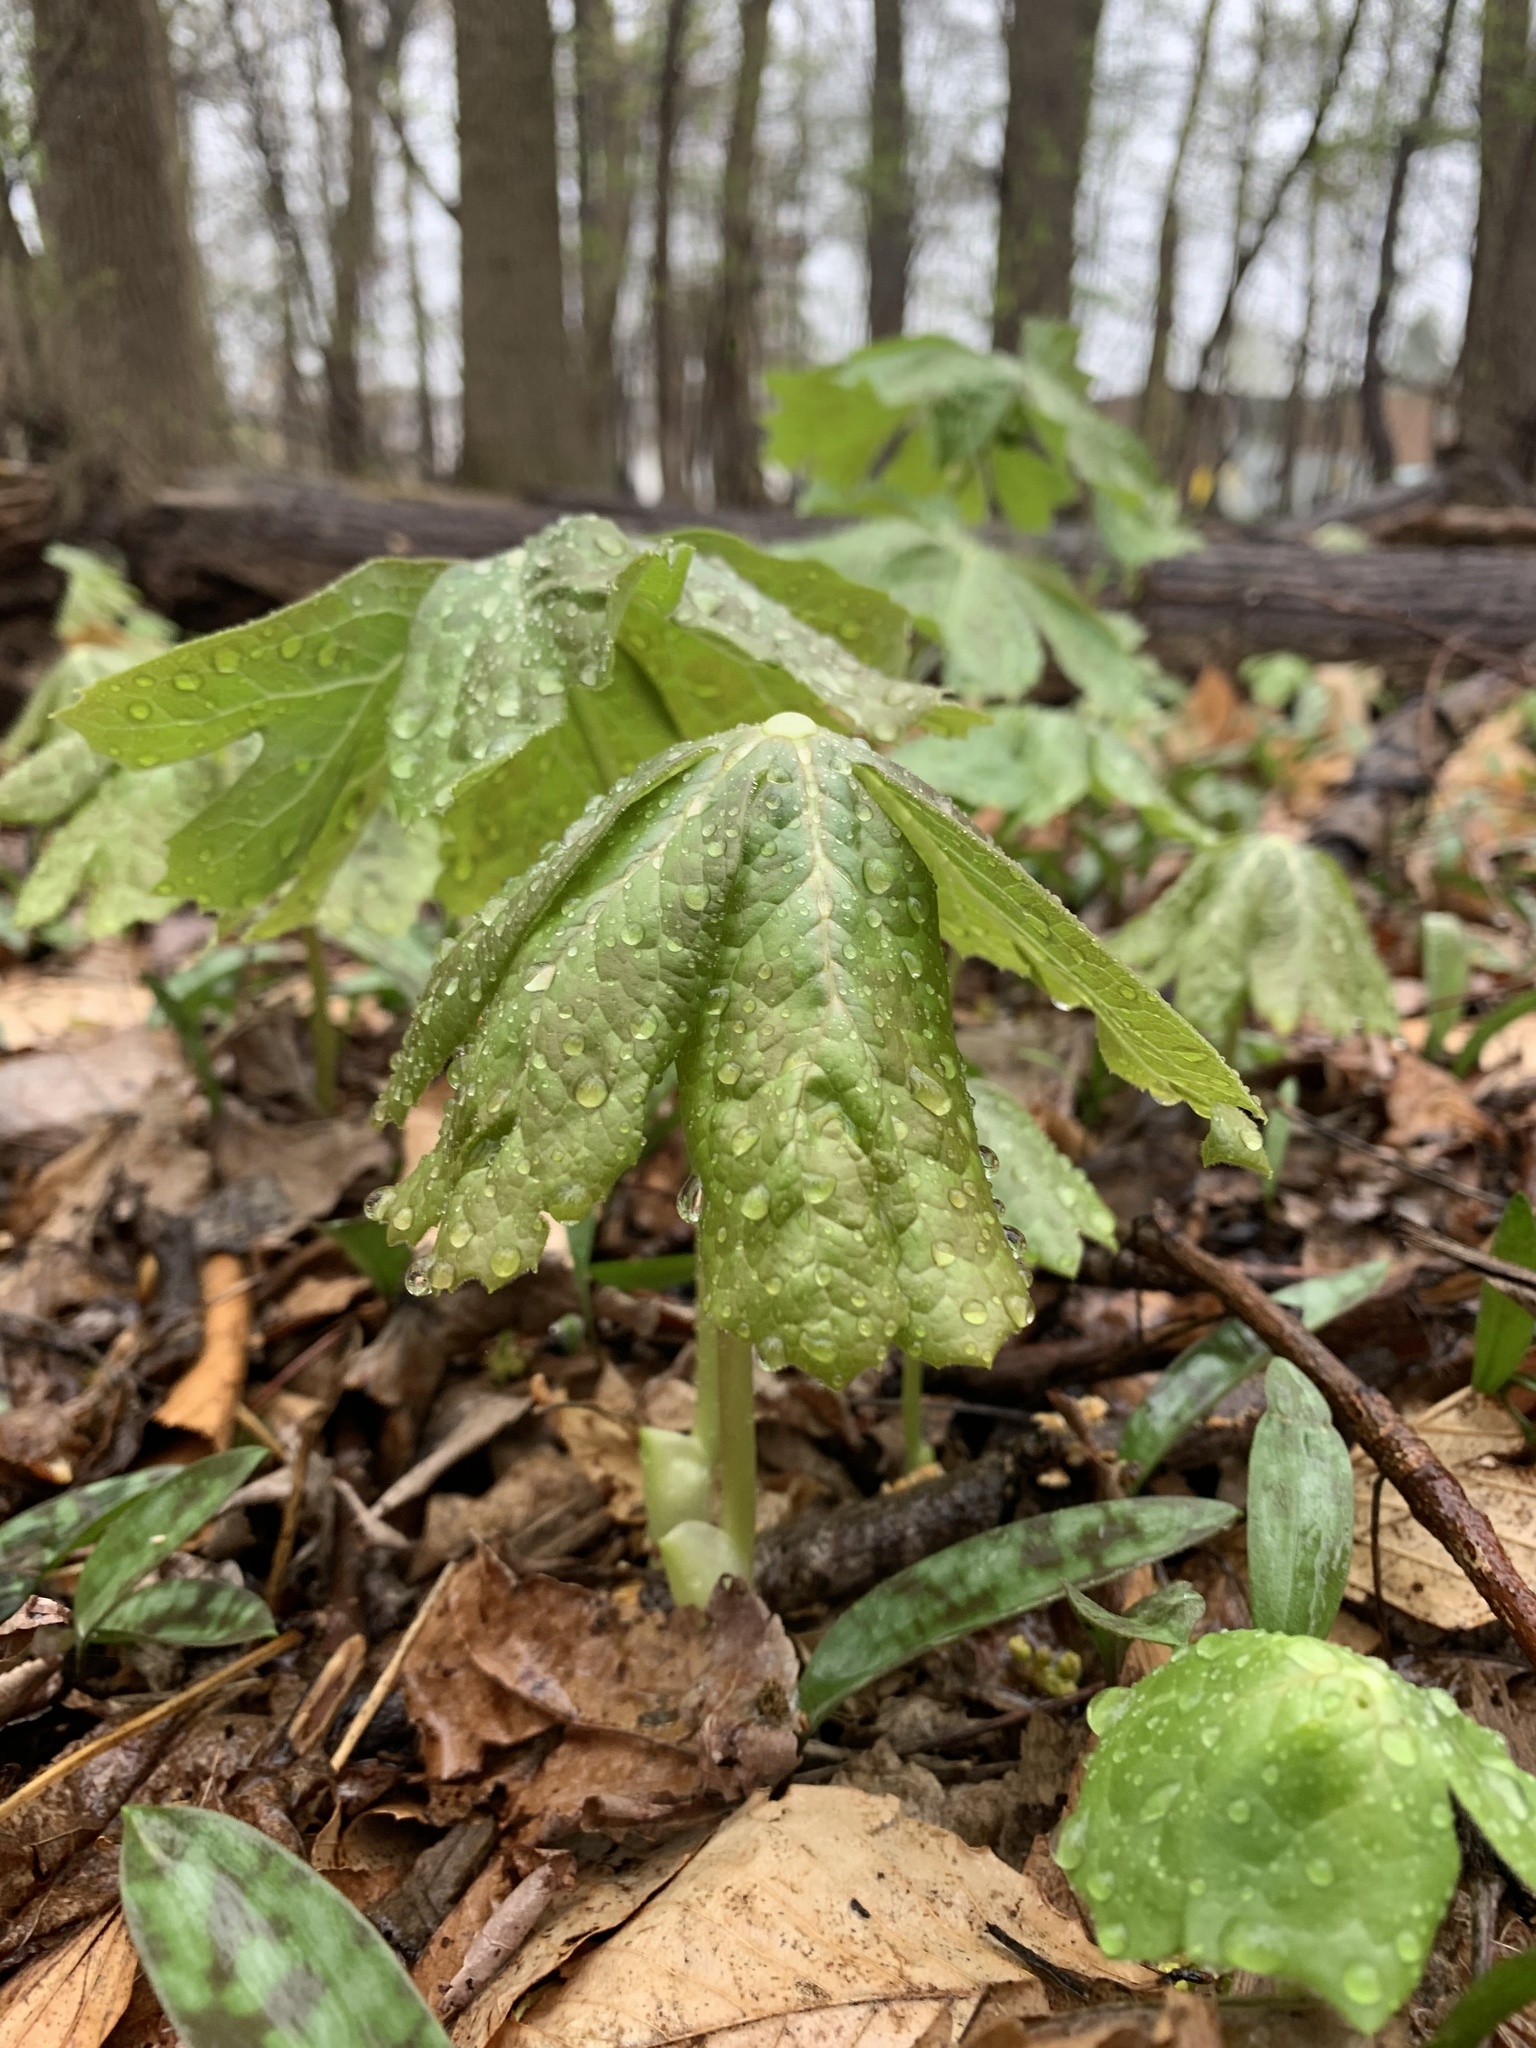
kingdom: Plantae
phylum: Tracheophyta
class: Magnoliopsida
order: Ranunculales
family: Berberidaceae
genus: Podophyllum
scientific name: Podophyllum peltatum
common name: Wild mandrake
